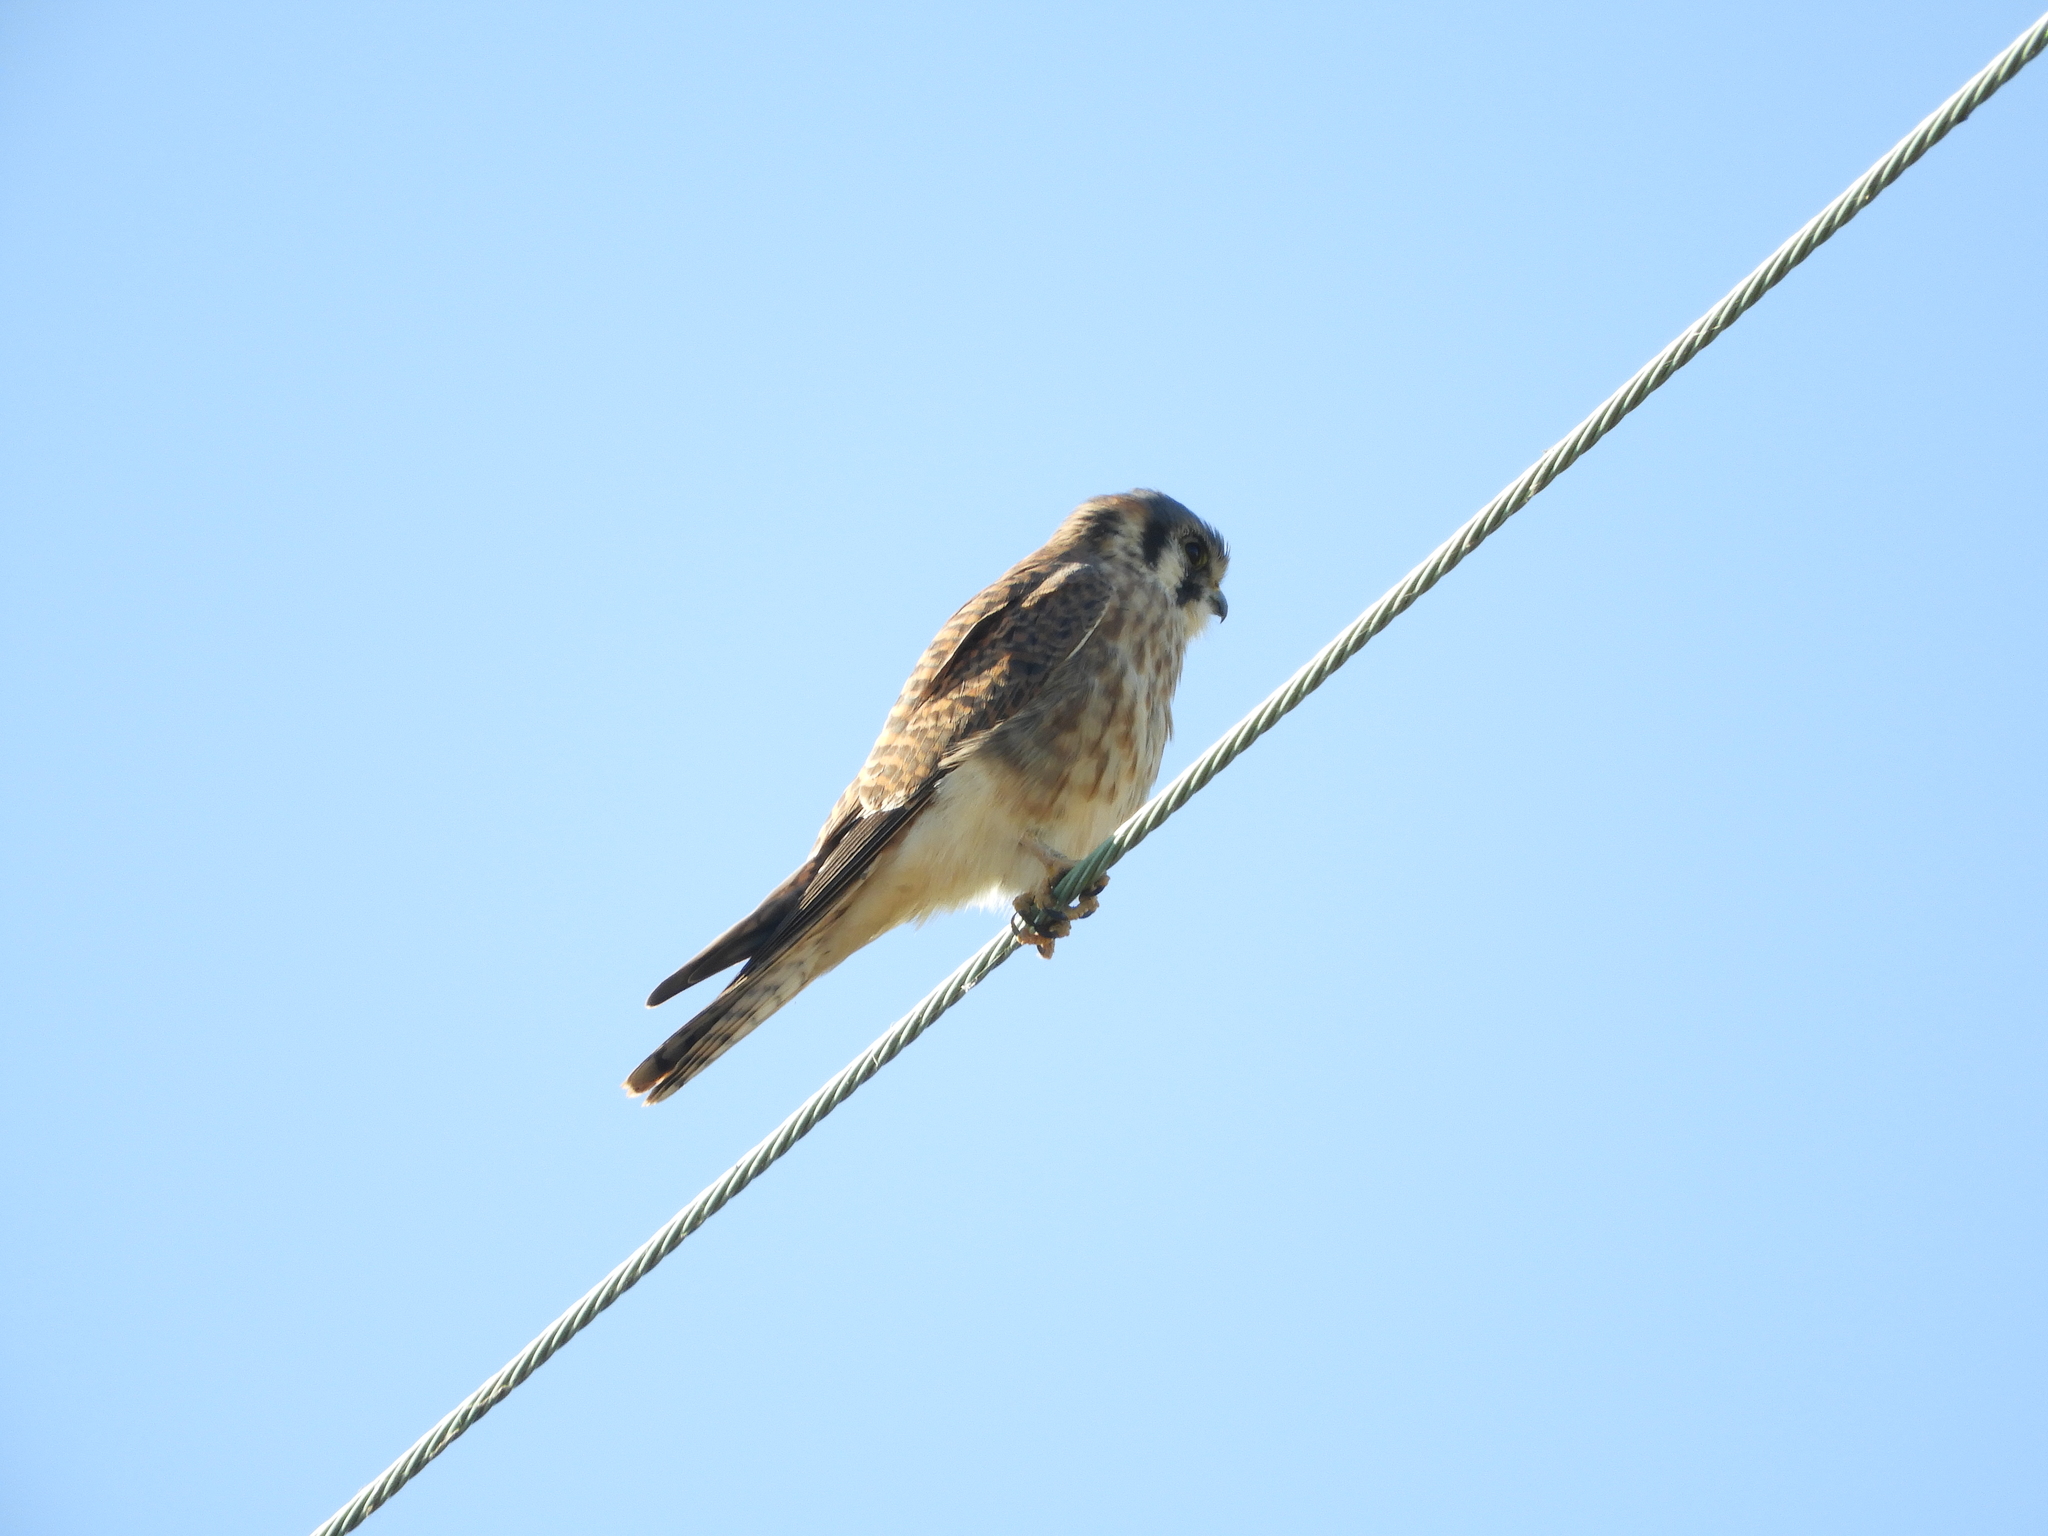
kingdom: Animalia
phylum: Chordata
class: Aves
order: Falconiformes
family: Falconidae
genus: Falco
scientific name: Falco sparverius
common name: American kestrel
